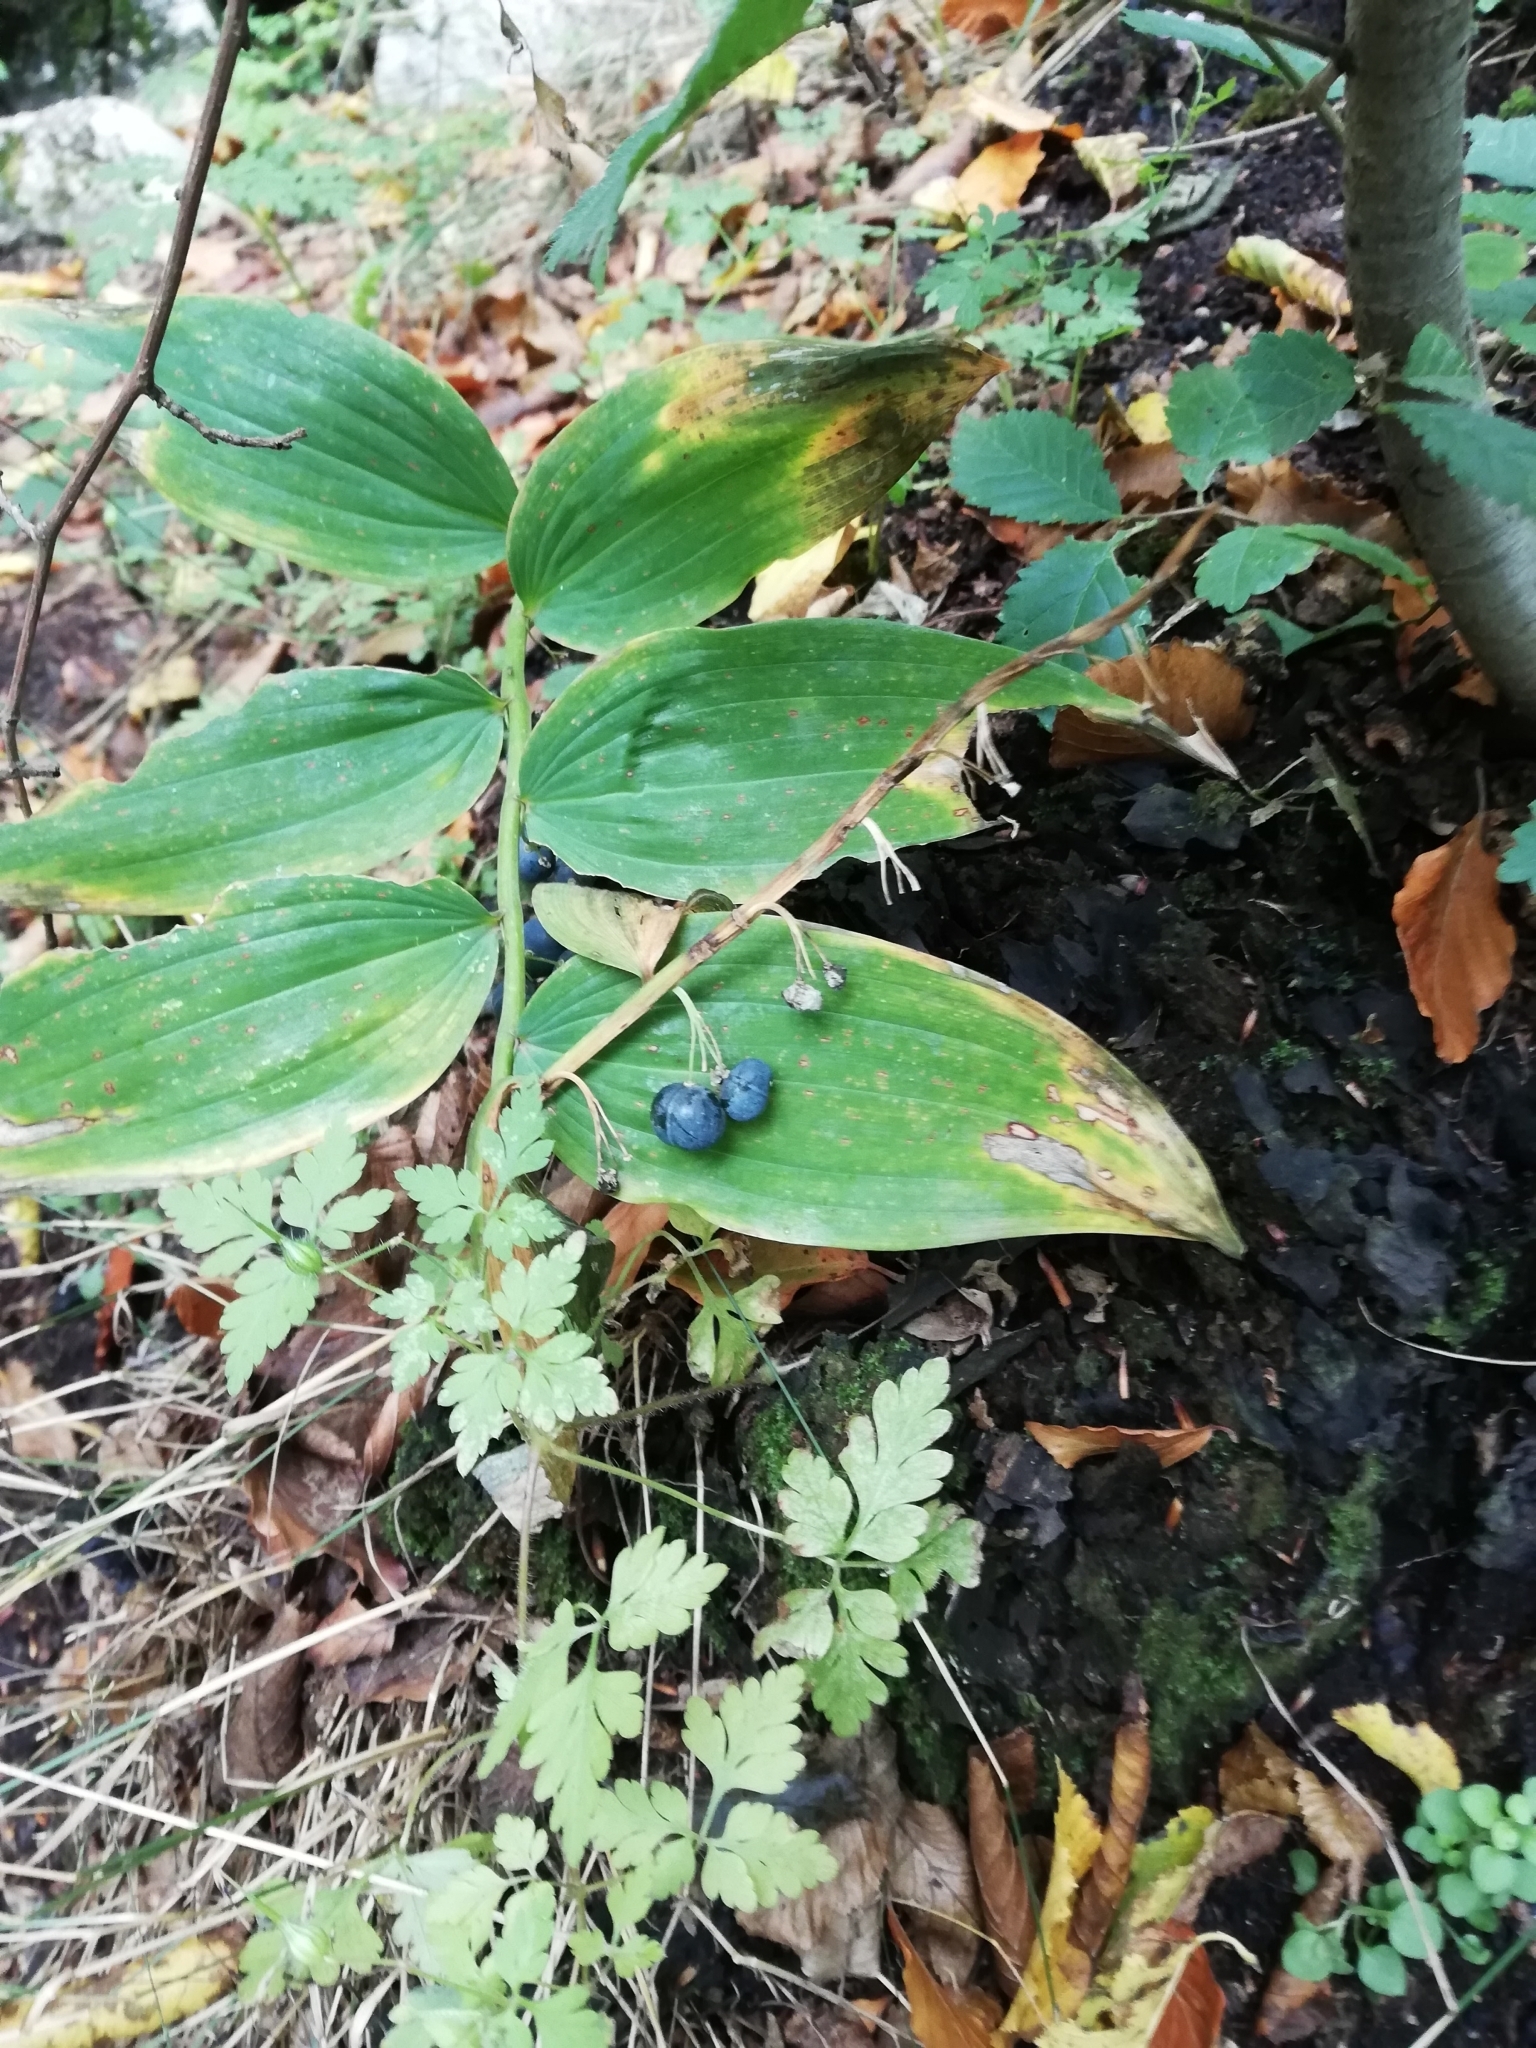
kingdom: Plantae
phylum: Tracheophyta
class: Liliopsida
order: Asparagales
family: Asparagaceae
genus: Polygonatum
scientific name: Polygonatum multiflorum
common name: Solomon's-seal
